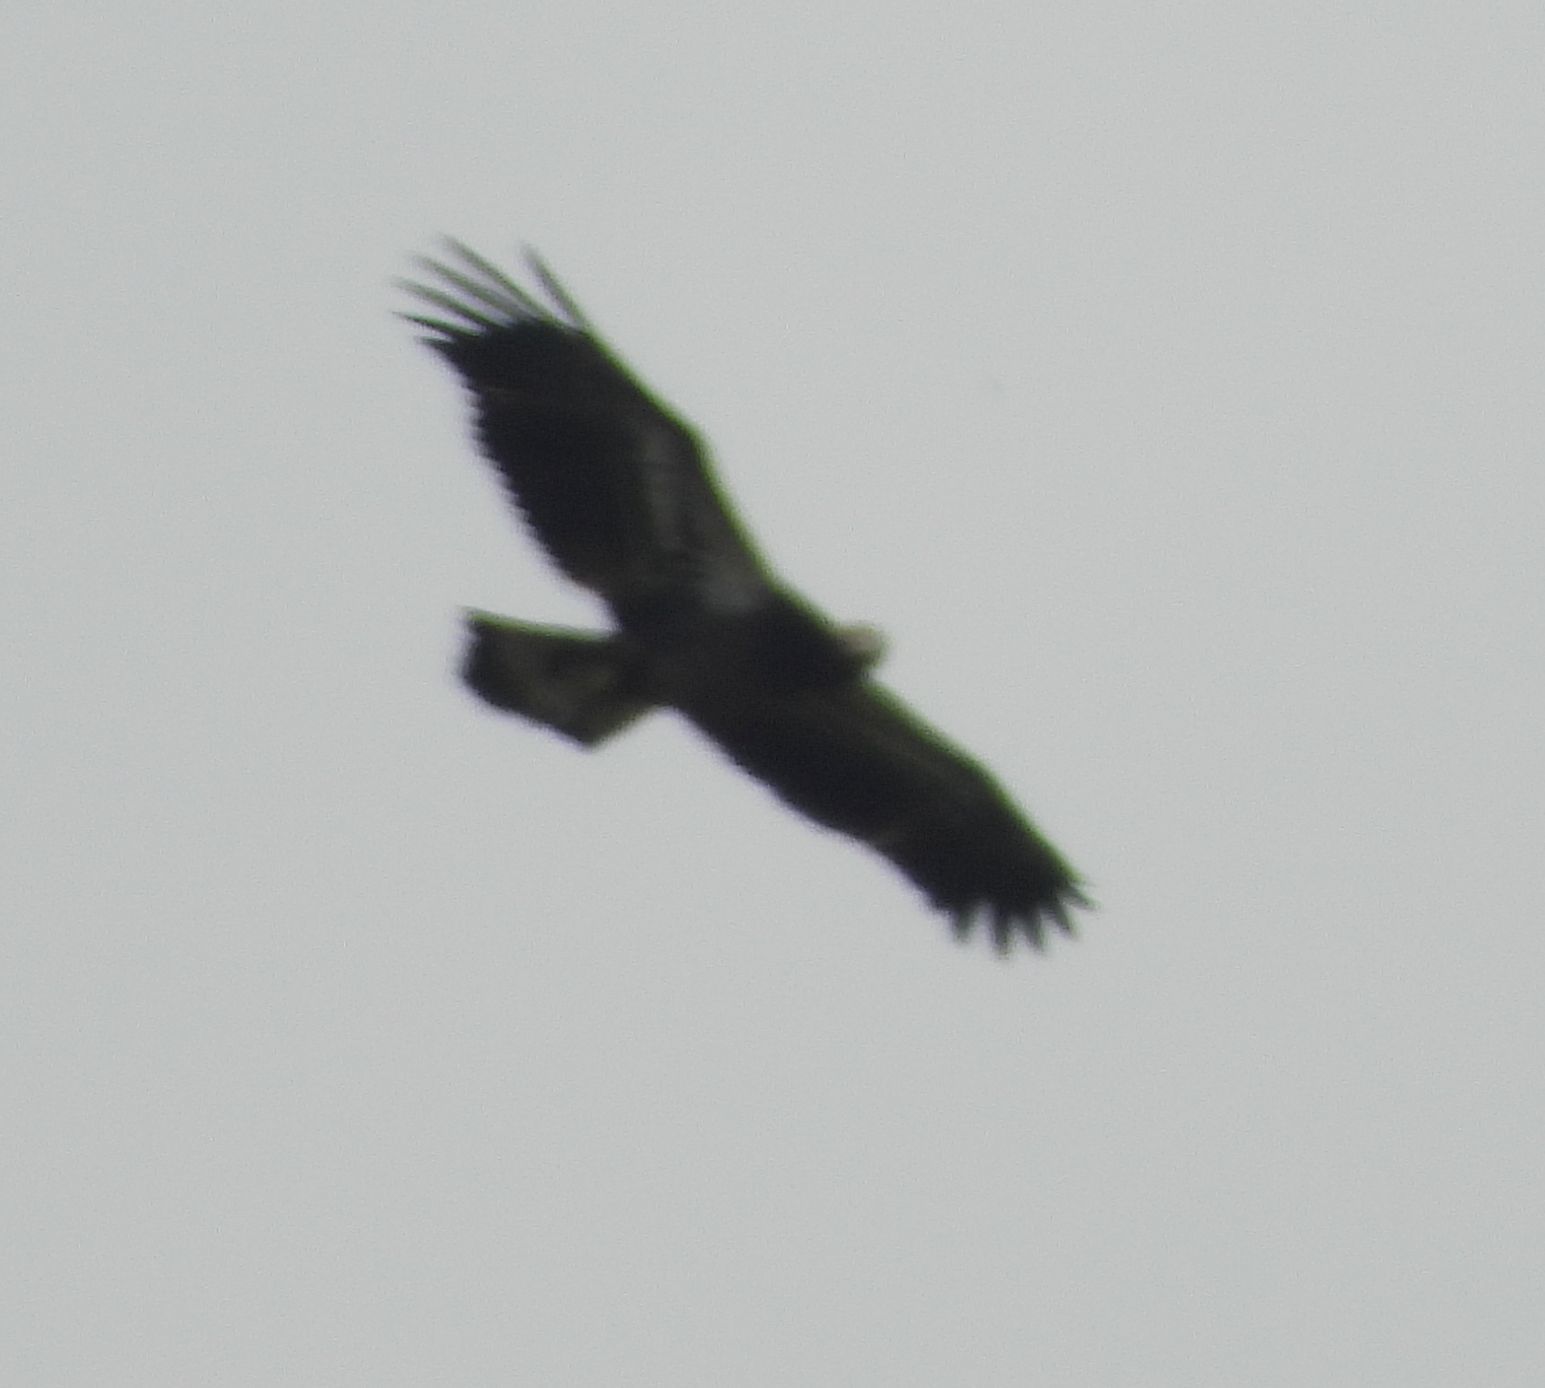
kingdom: Animalia
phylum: Chordata
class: Aves
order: Accipitriformes
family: Accipitridae
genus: Haliaeetus
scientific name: Haliaeetus leucocephalus
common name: Bald eagle
